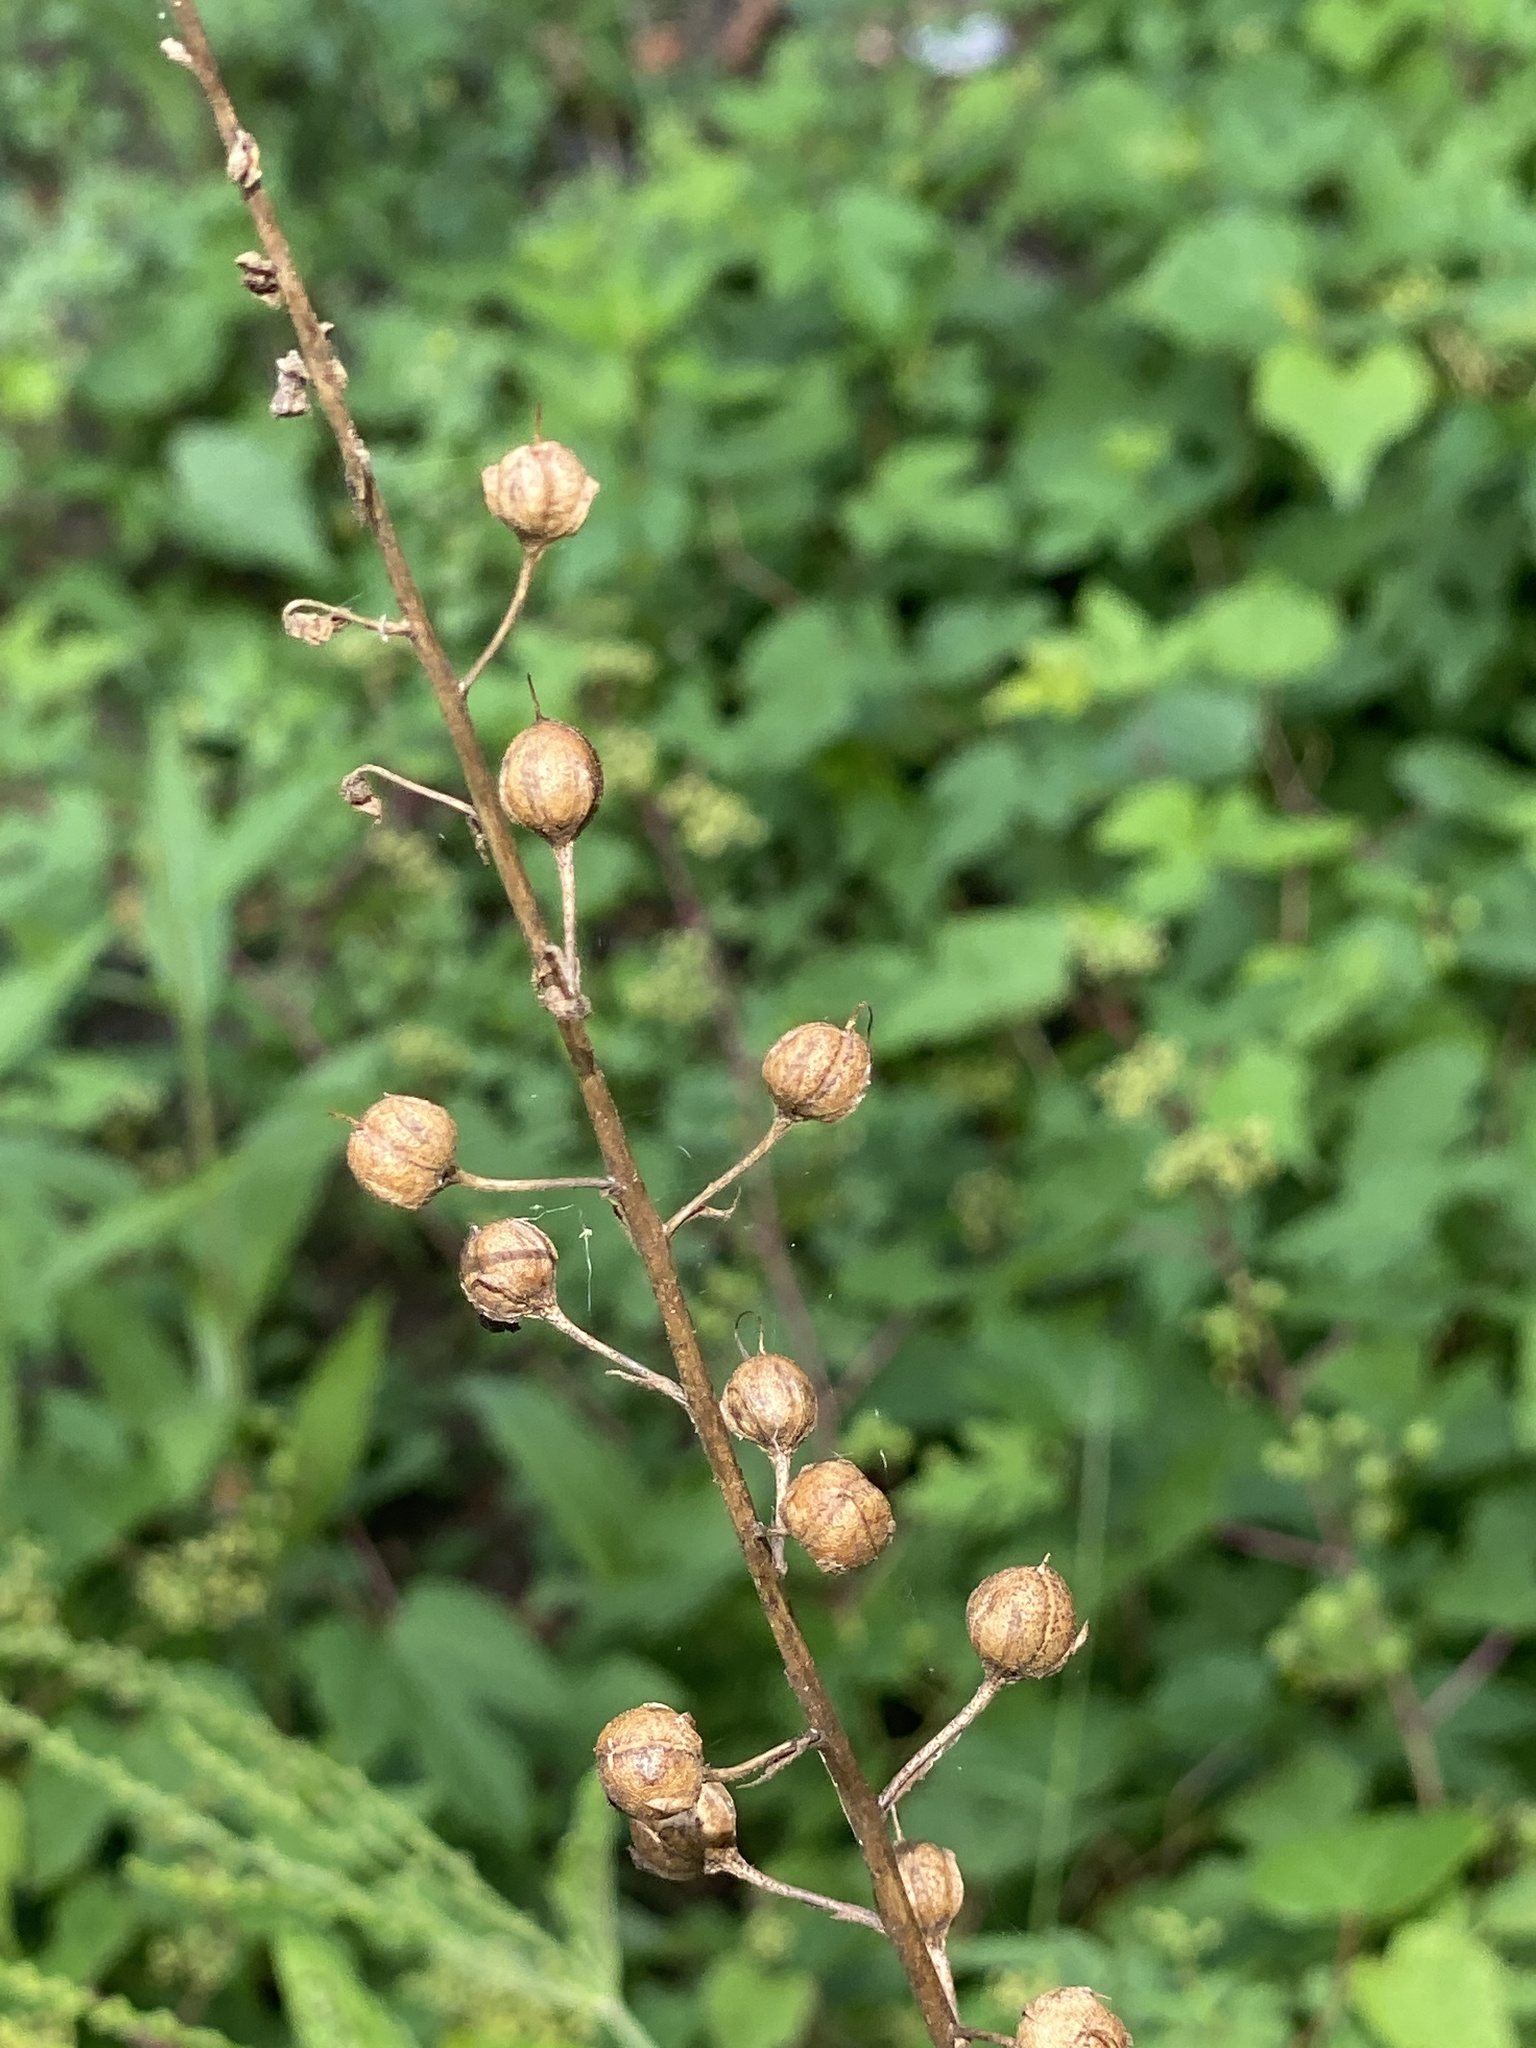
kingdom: Plantae
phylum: Tracheophyta
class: Magnoliopsida
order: Lamiales
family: Scrophulariaceae
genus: Verbascum
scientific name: Verbascum blattaria
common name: Moth mullein
